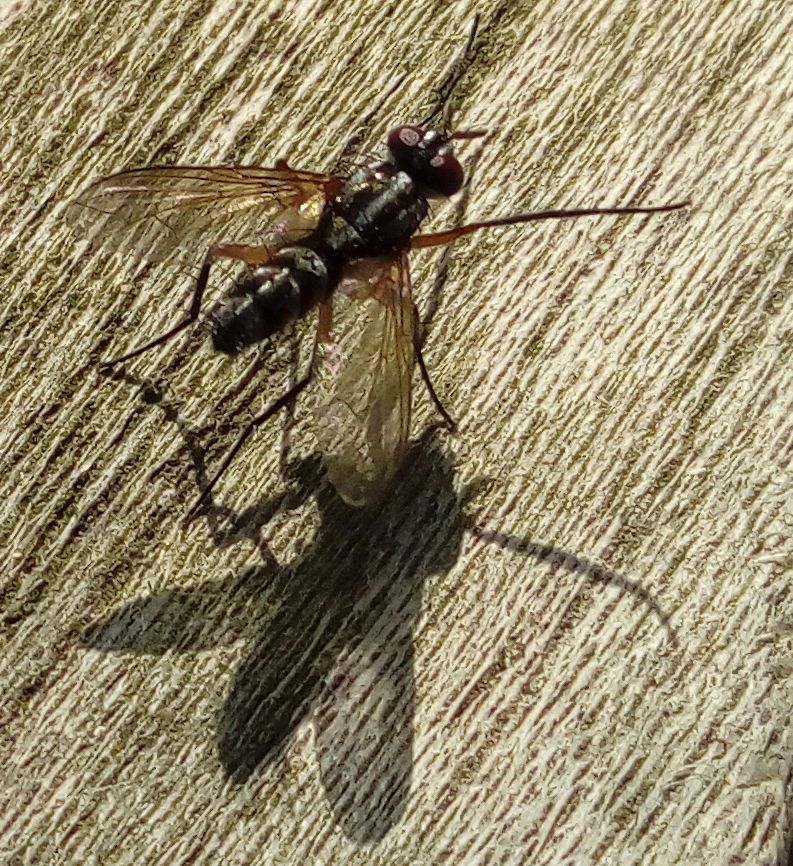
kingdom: Animalia
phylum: Arthropoda
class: Insecta
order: Diptera
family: Tachinidae
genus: Mintho
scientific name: Mintho rufiventris
